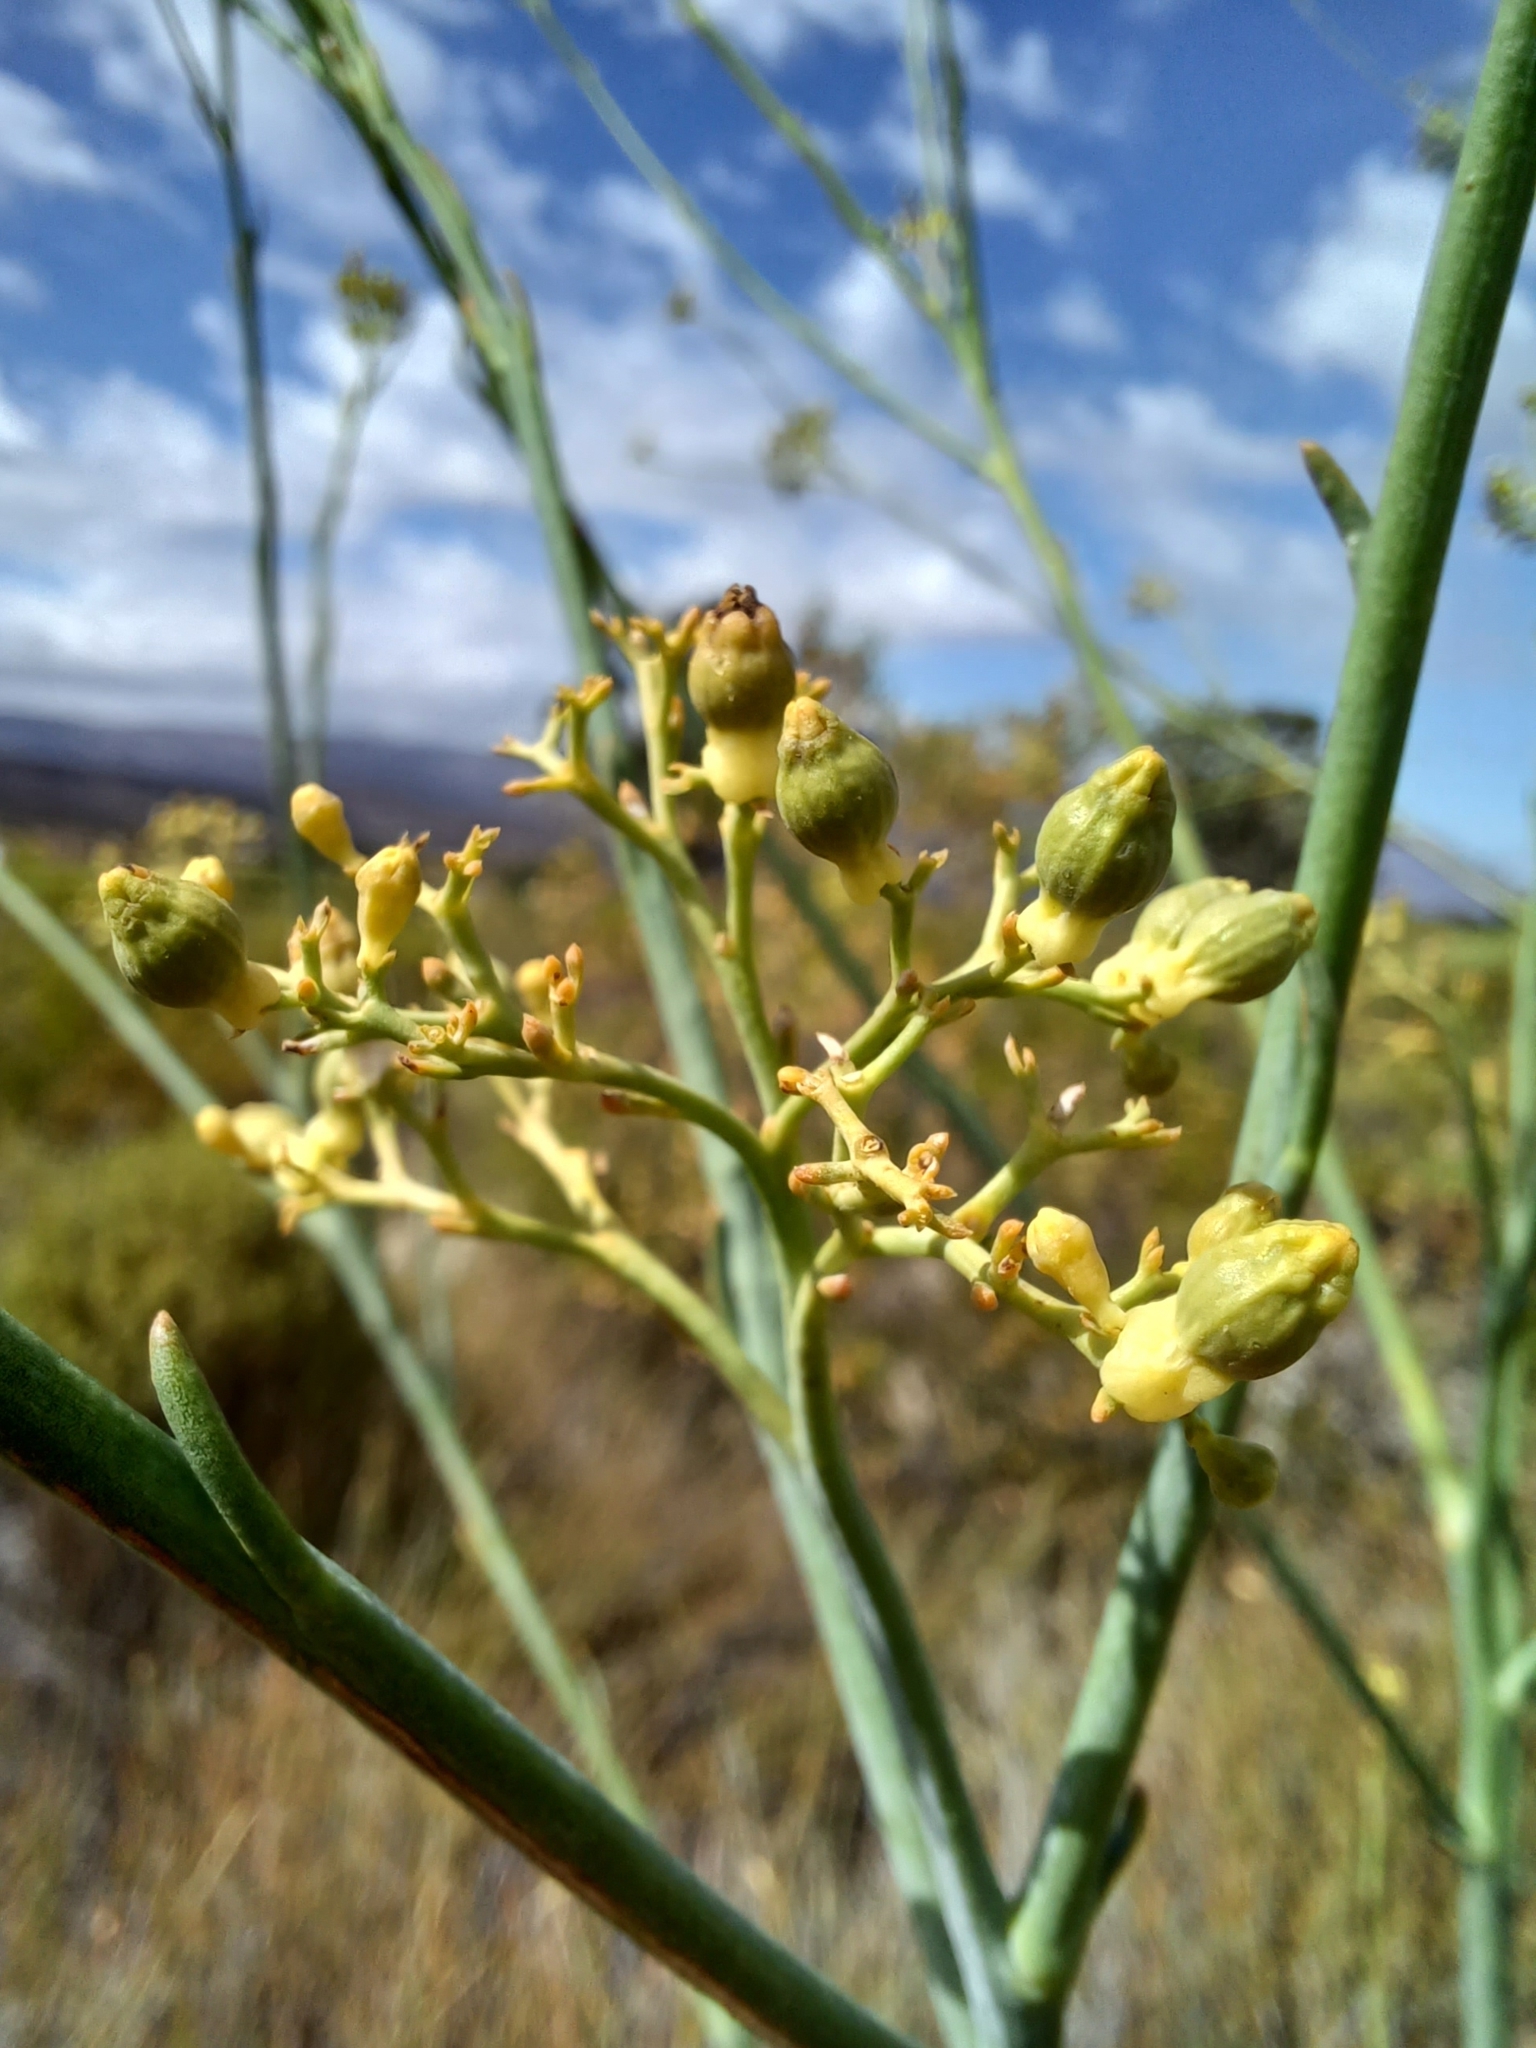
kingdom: Plantae
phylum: Tracheophyta
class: Magnoliopsida
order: Santalales
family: Thesiaceae
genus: Thesium
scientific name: Thesium strictum
